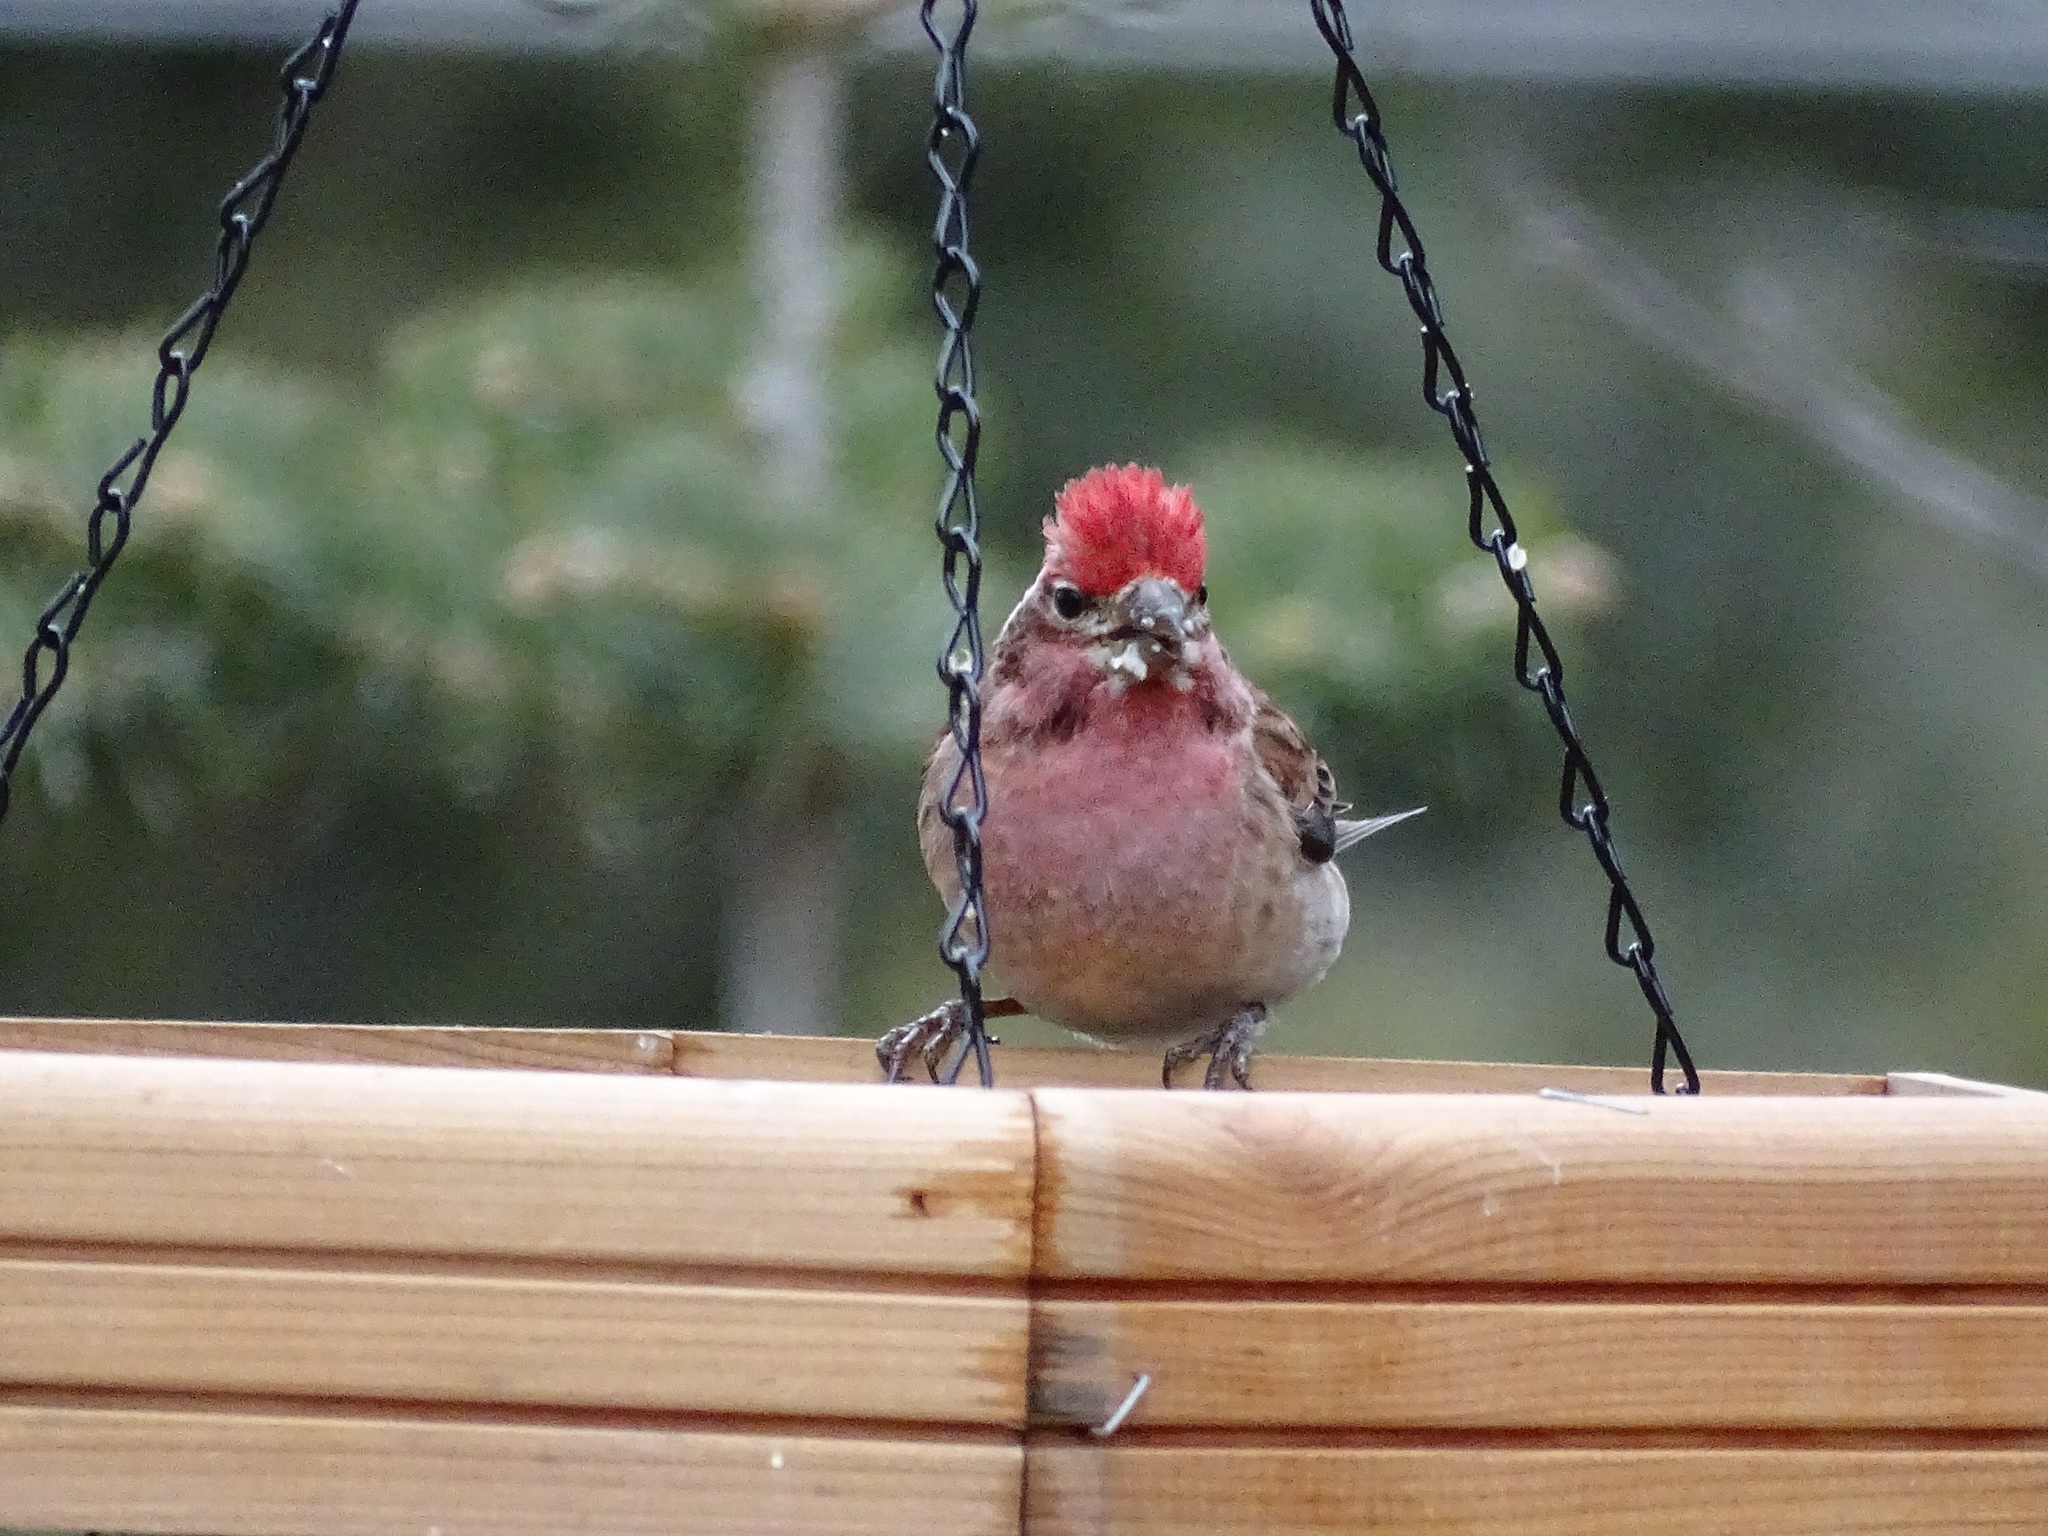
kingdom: Animalia
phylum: Chordata
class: Aves
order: Passeriformes
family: Fringillidae
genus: Haemorhous
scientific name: Haemorhous cassinii
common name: Cassin's finch
